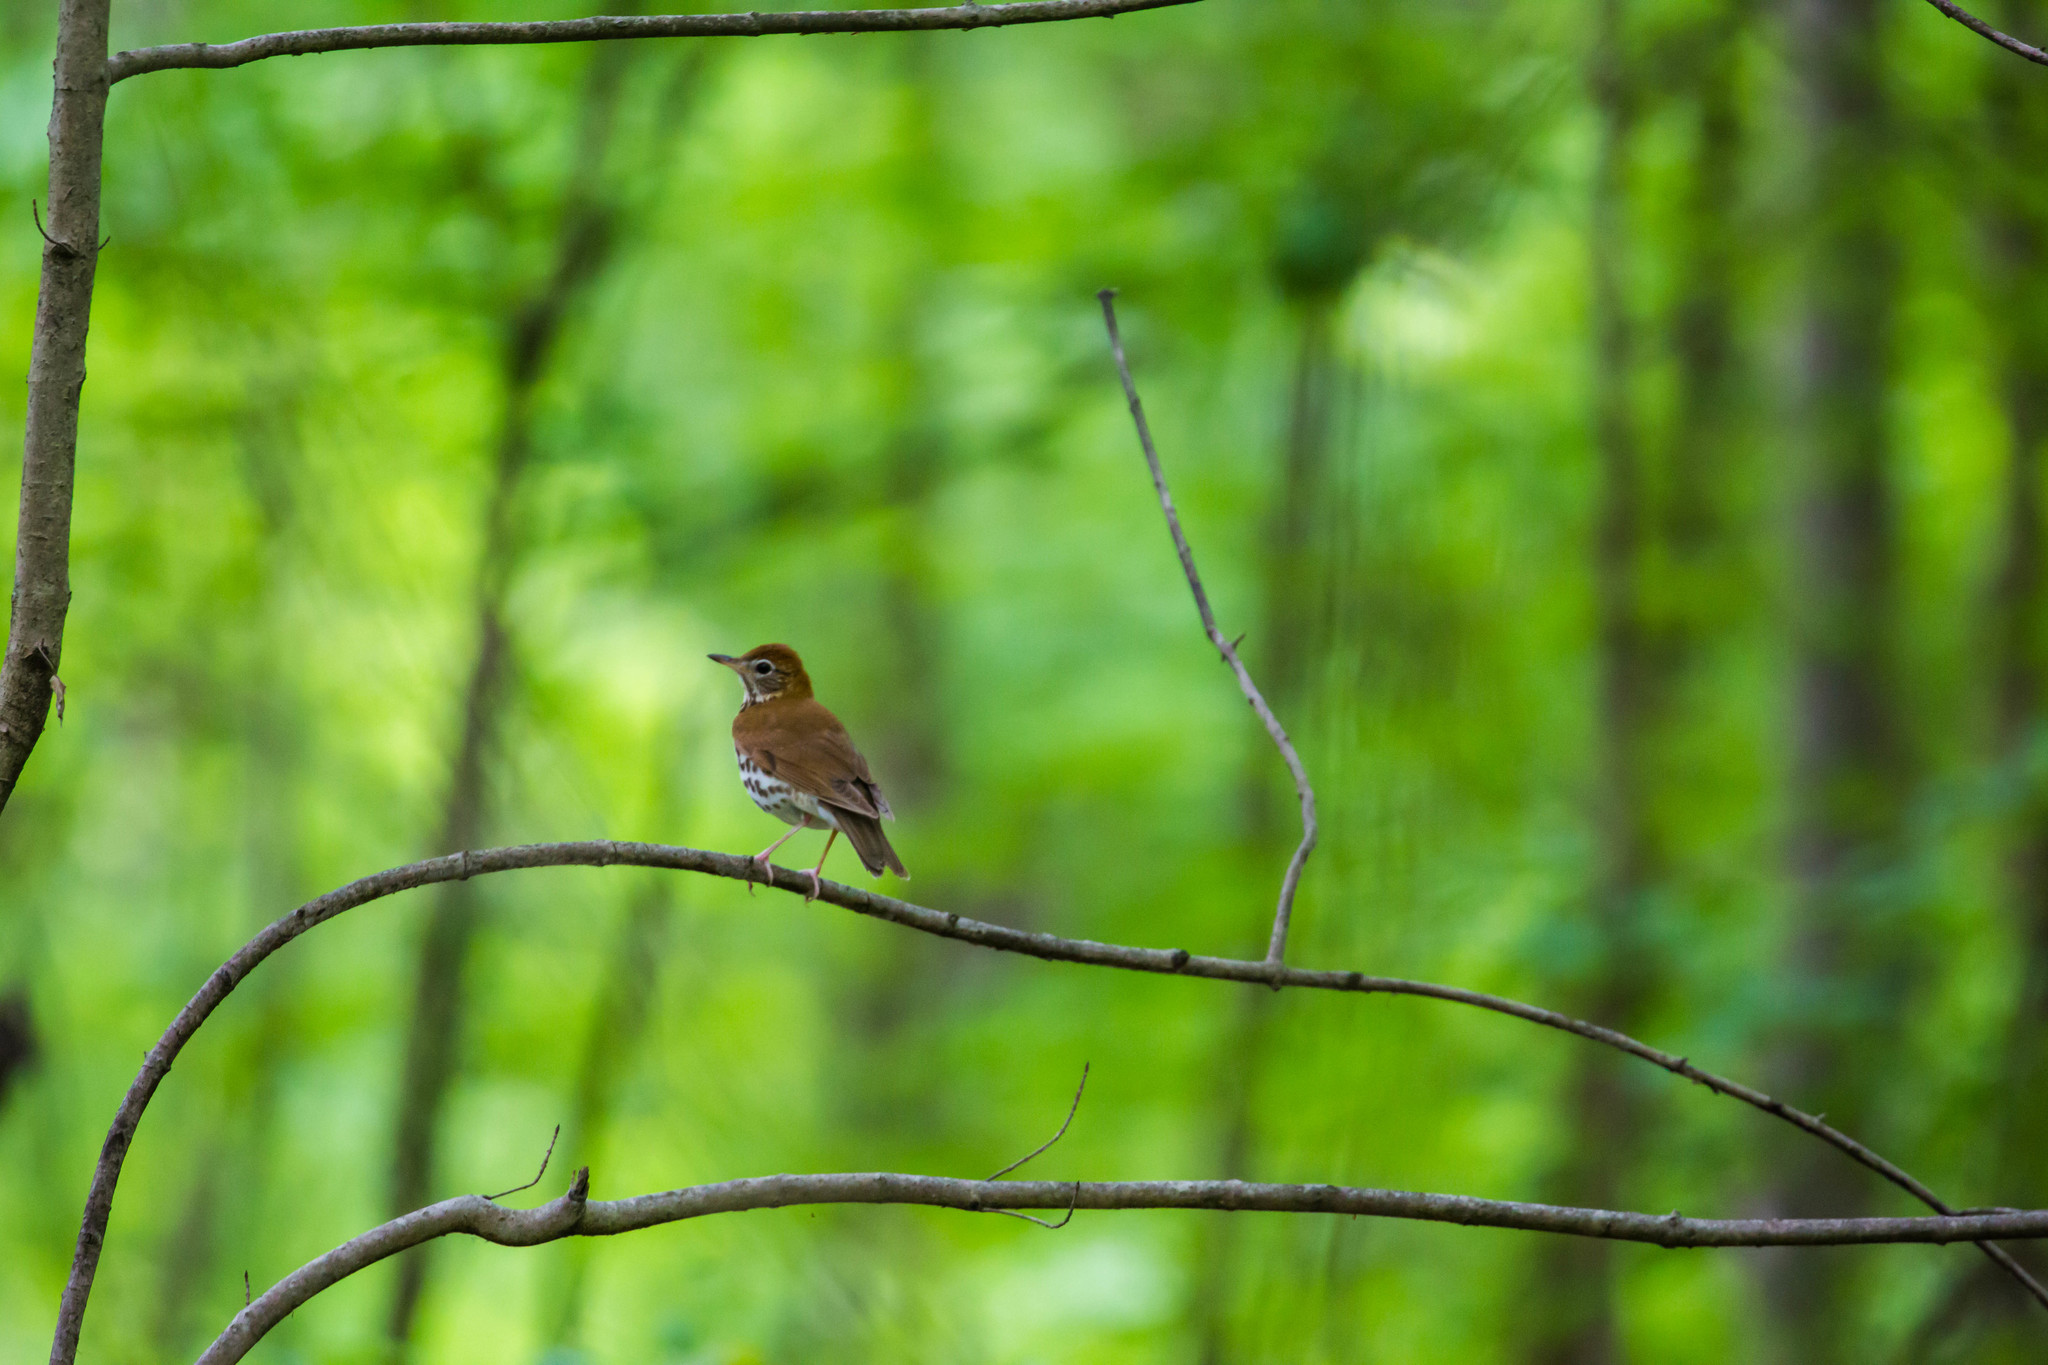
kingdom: Animalia
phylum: Chordata
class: Aves
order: Passeriformes
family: Turdidae
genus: Hylocichla
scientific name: Hylocichla mustelina
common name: Wood thrush
